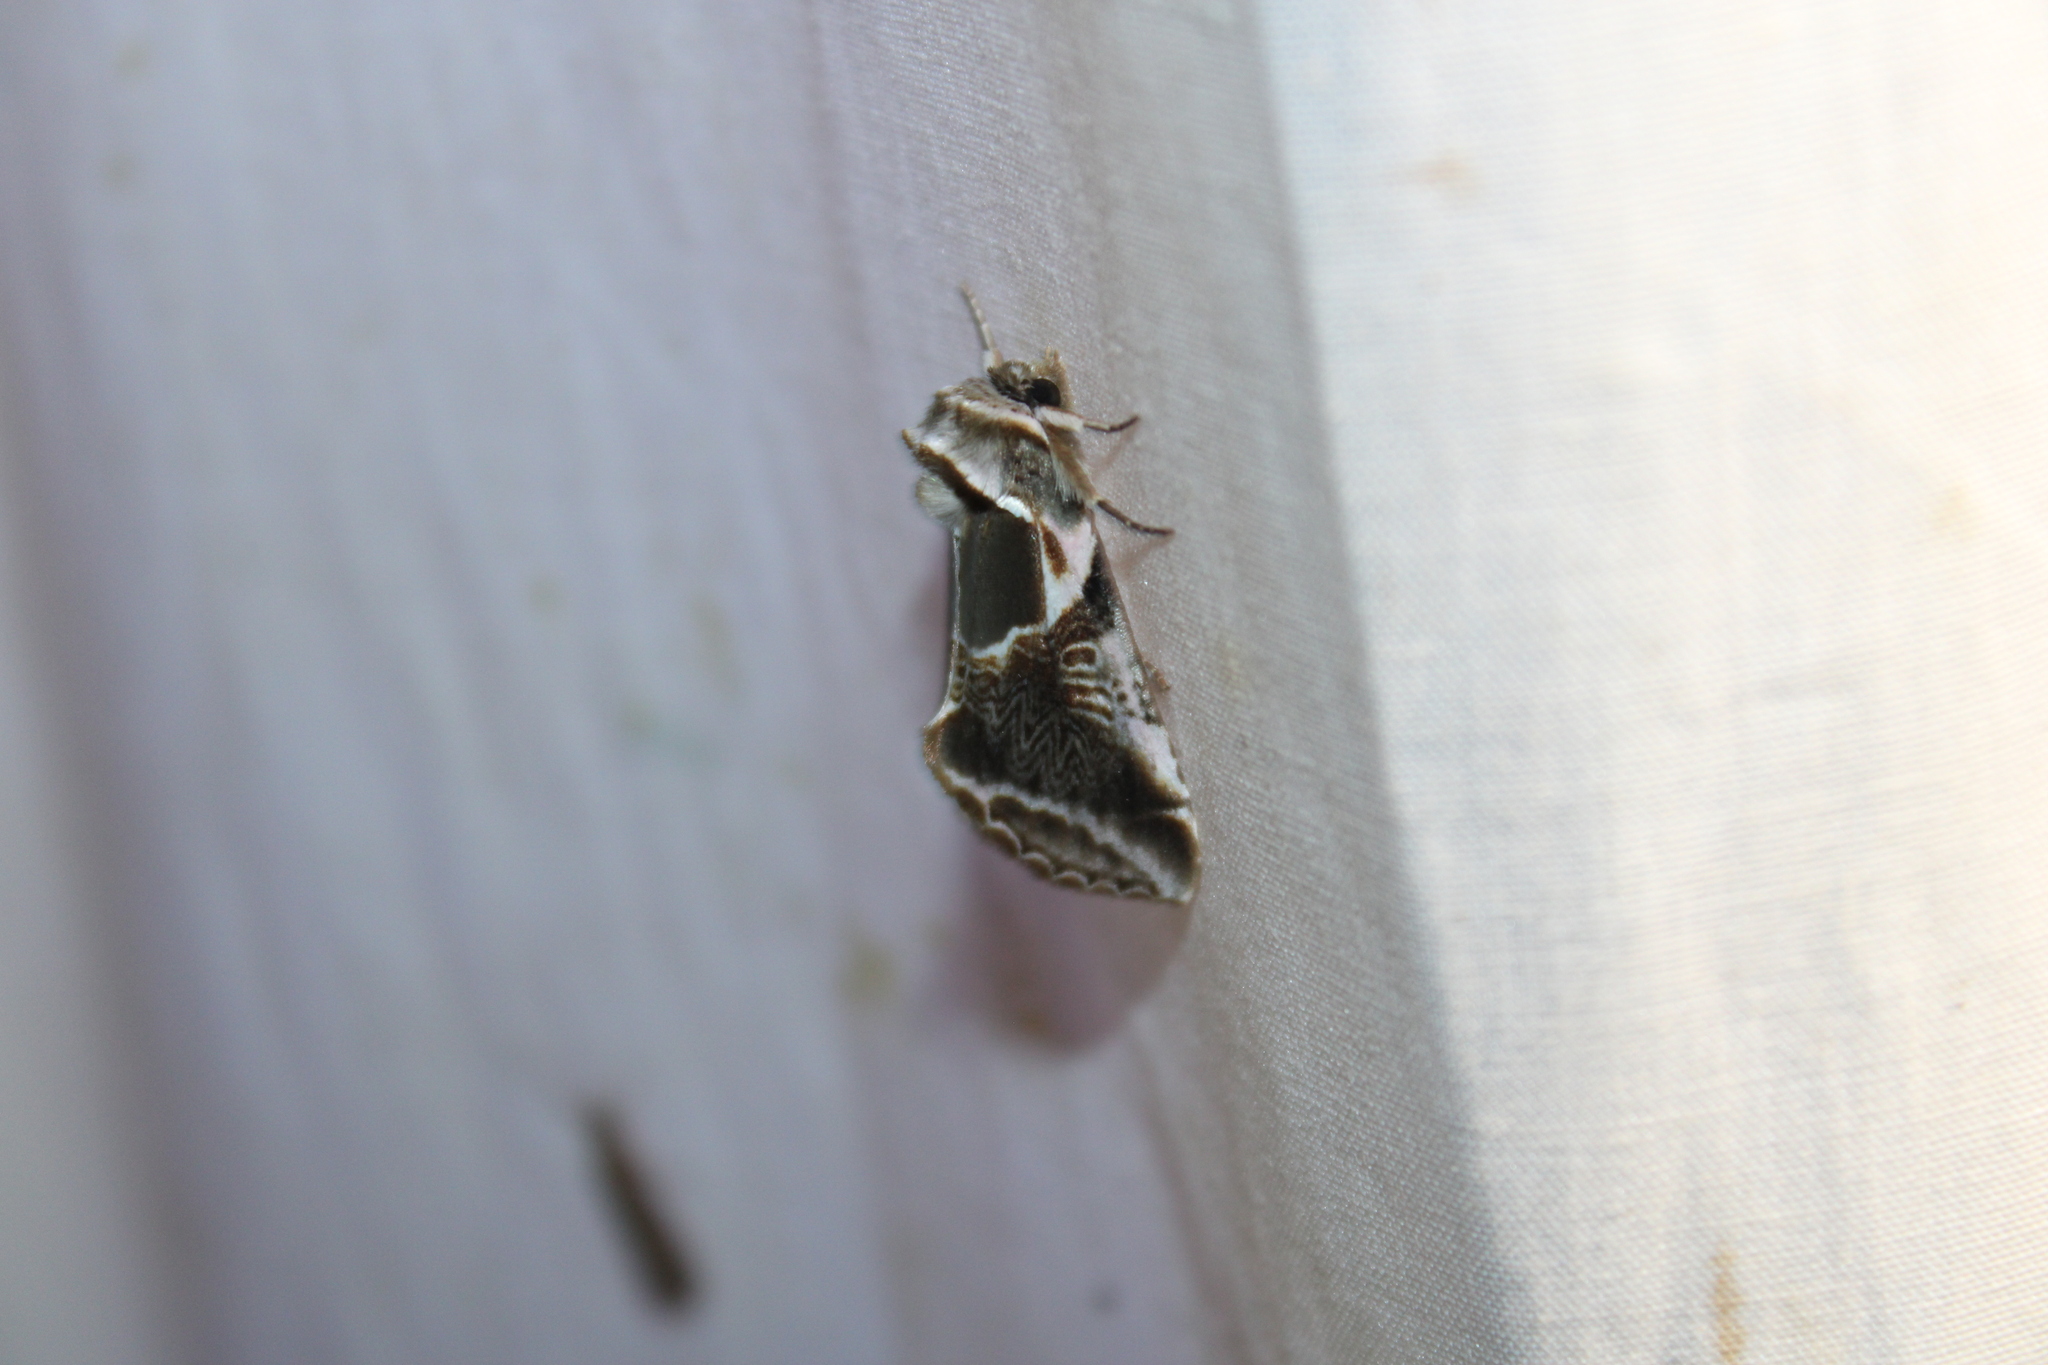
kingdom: Animalia
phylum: Arthropoda
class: Insecta
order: Lepidoptera
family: Drepanidae
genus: Habrosyne
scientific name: Habrosyne scripta
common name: Lettered habrosyne moth
